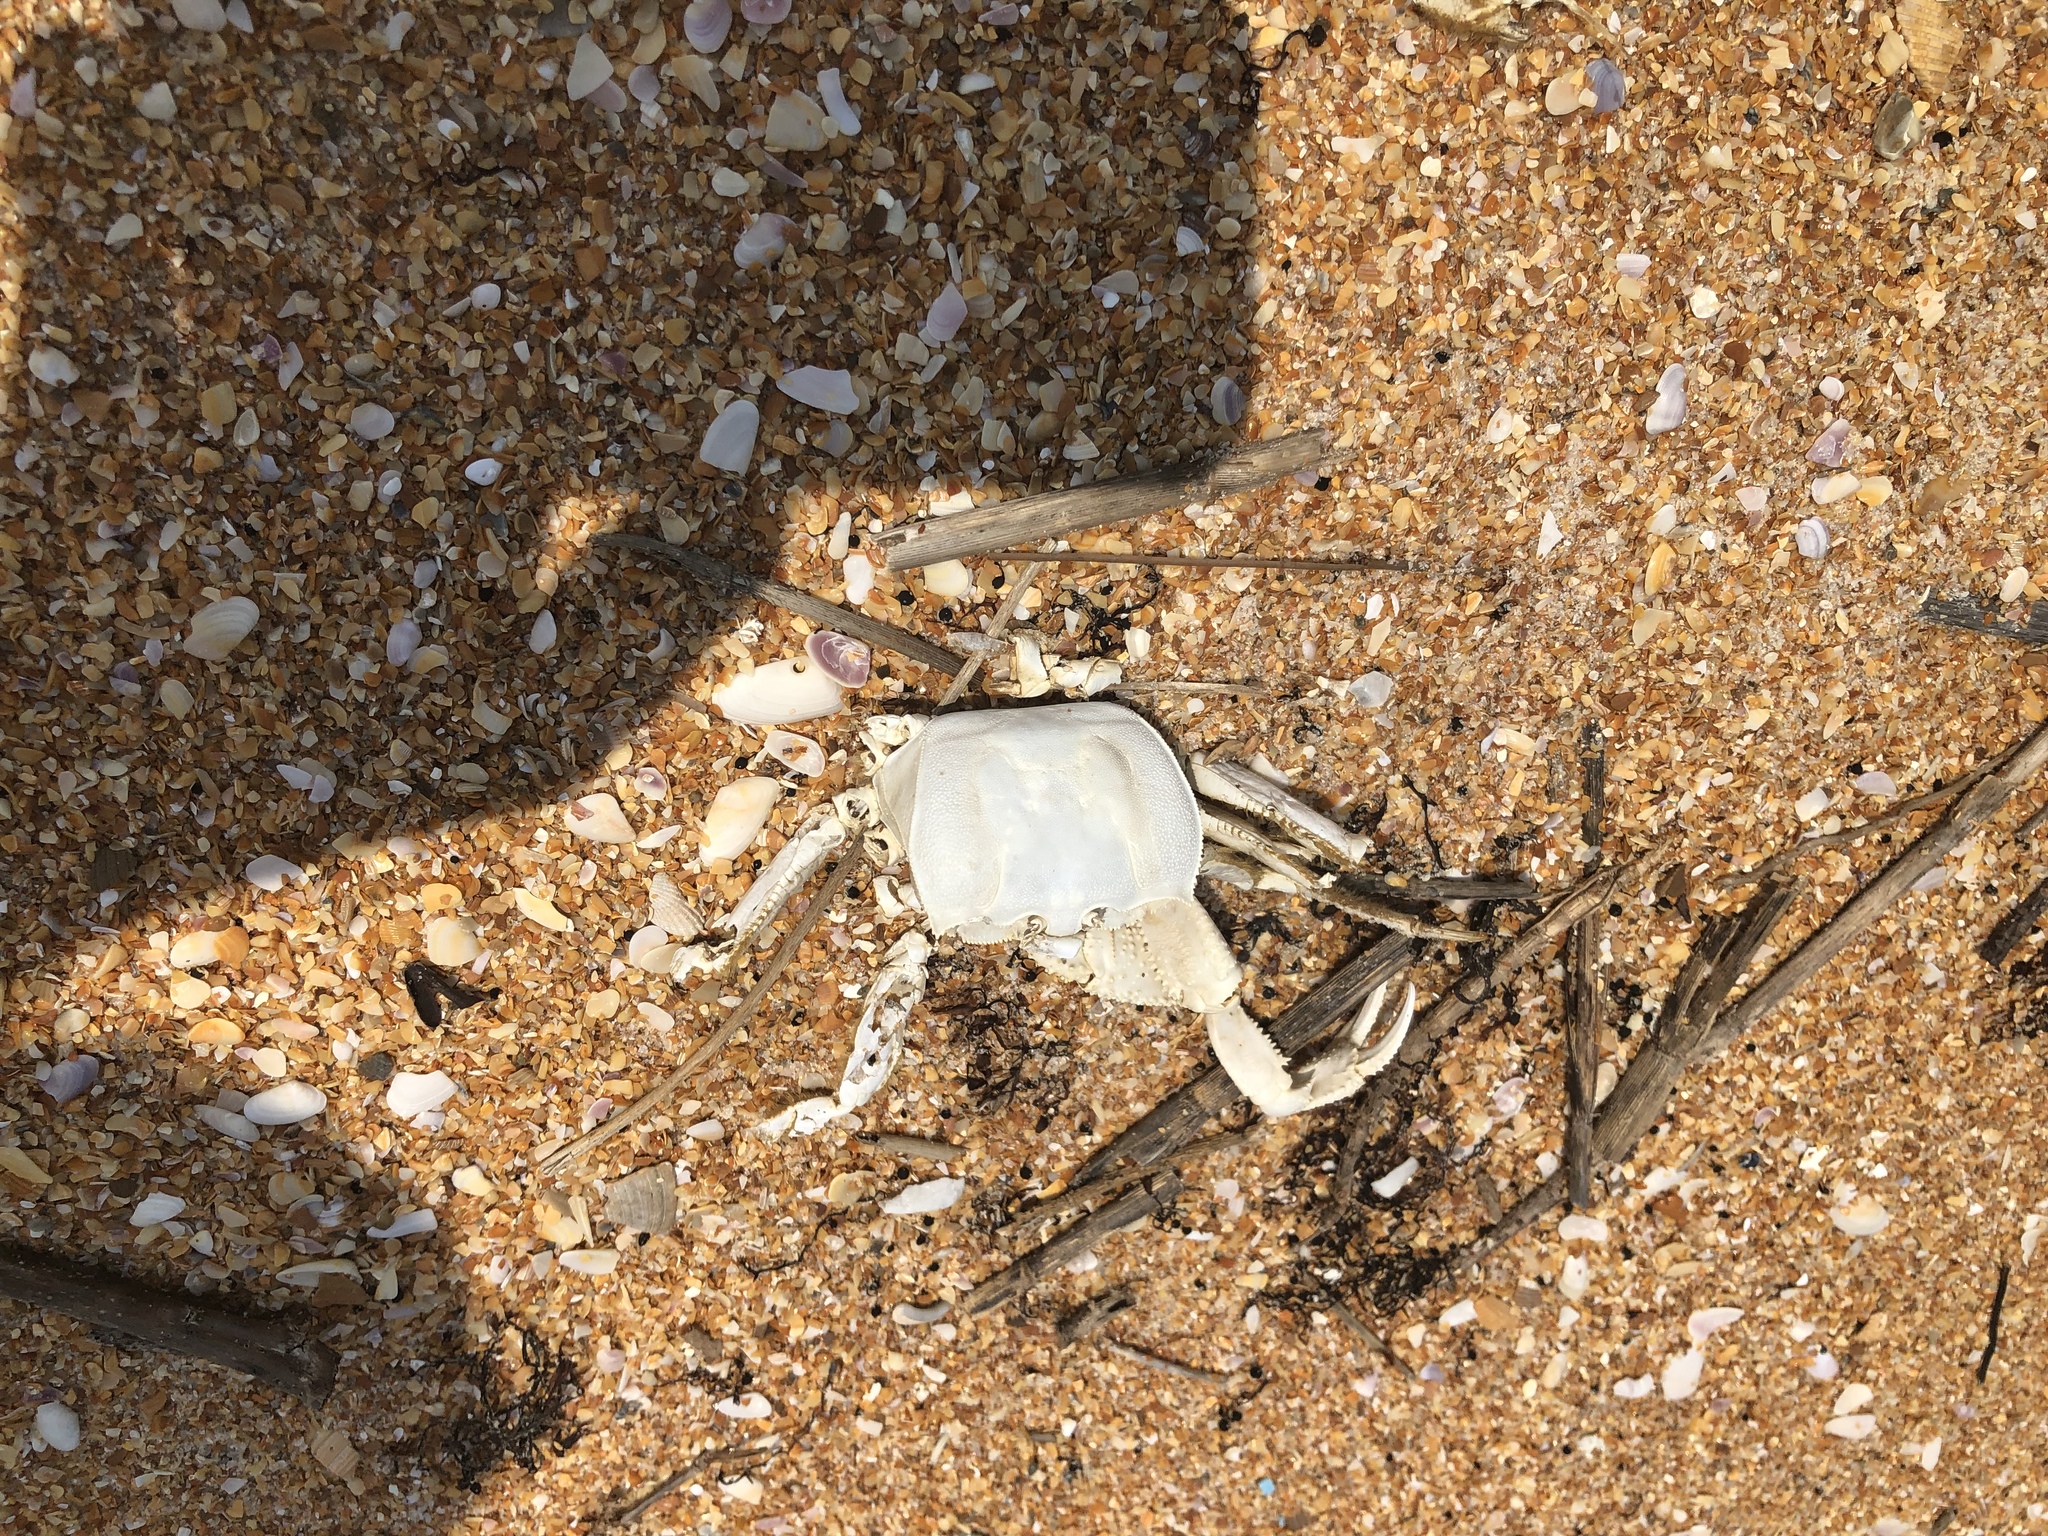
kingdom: Animalia
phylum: Arthropoda
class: Malacostraca
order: Decapoda
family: Ocypodidae
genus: Ocypode
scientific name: Ocypode quadrata
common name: Ghost crab
